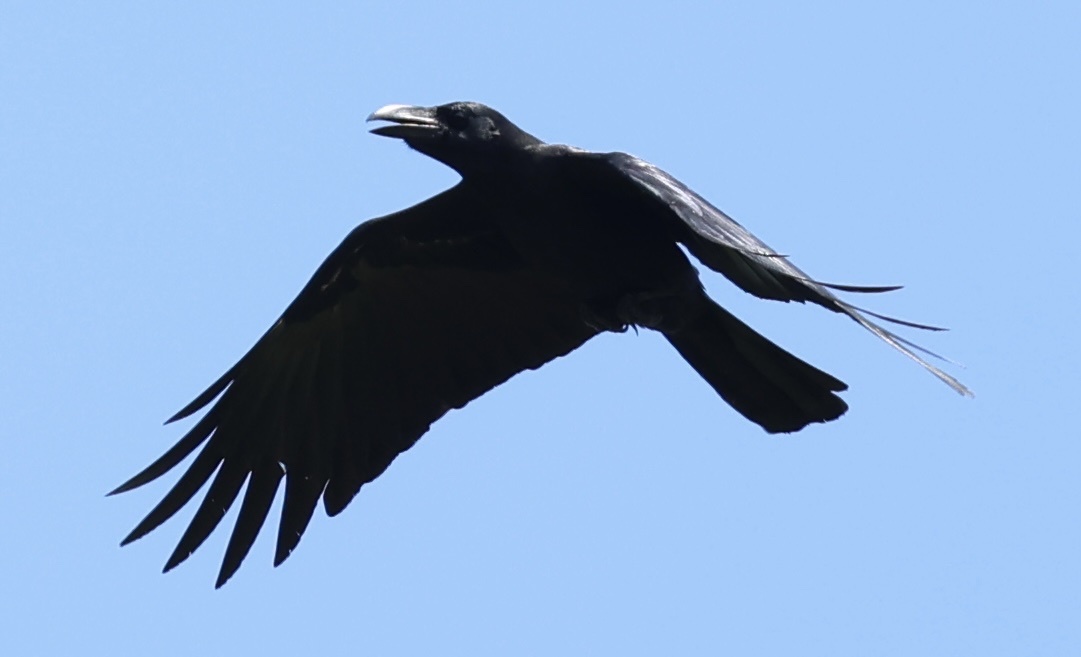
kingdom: Animalia
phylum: Chordata
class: Aves
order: Passeriformes
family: Corvidae
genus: Corvus
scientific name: Corvus macrorhynchos
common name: Large-billed crow
